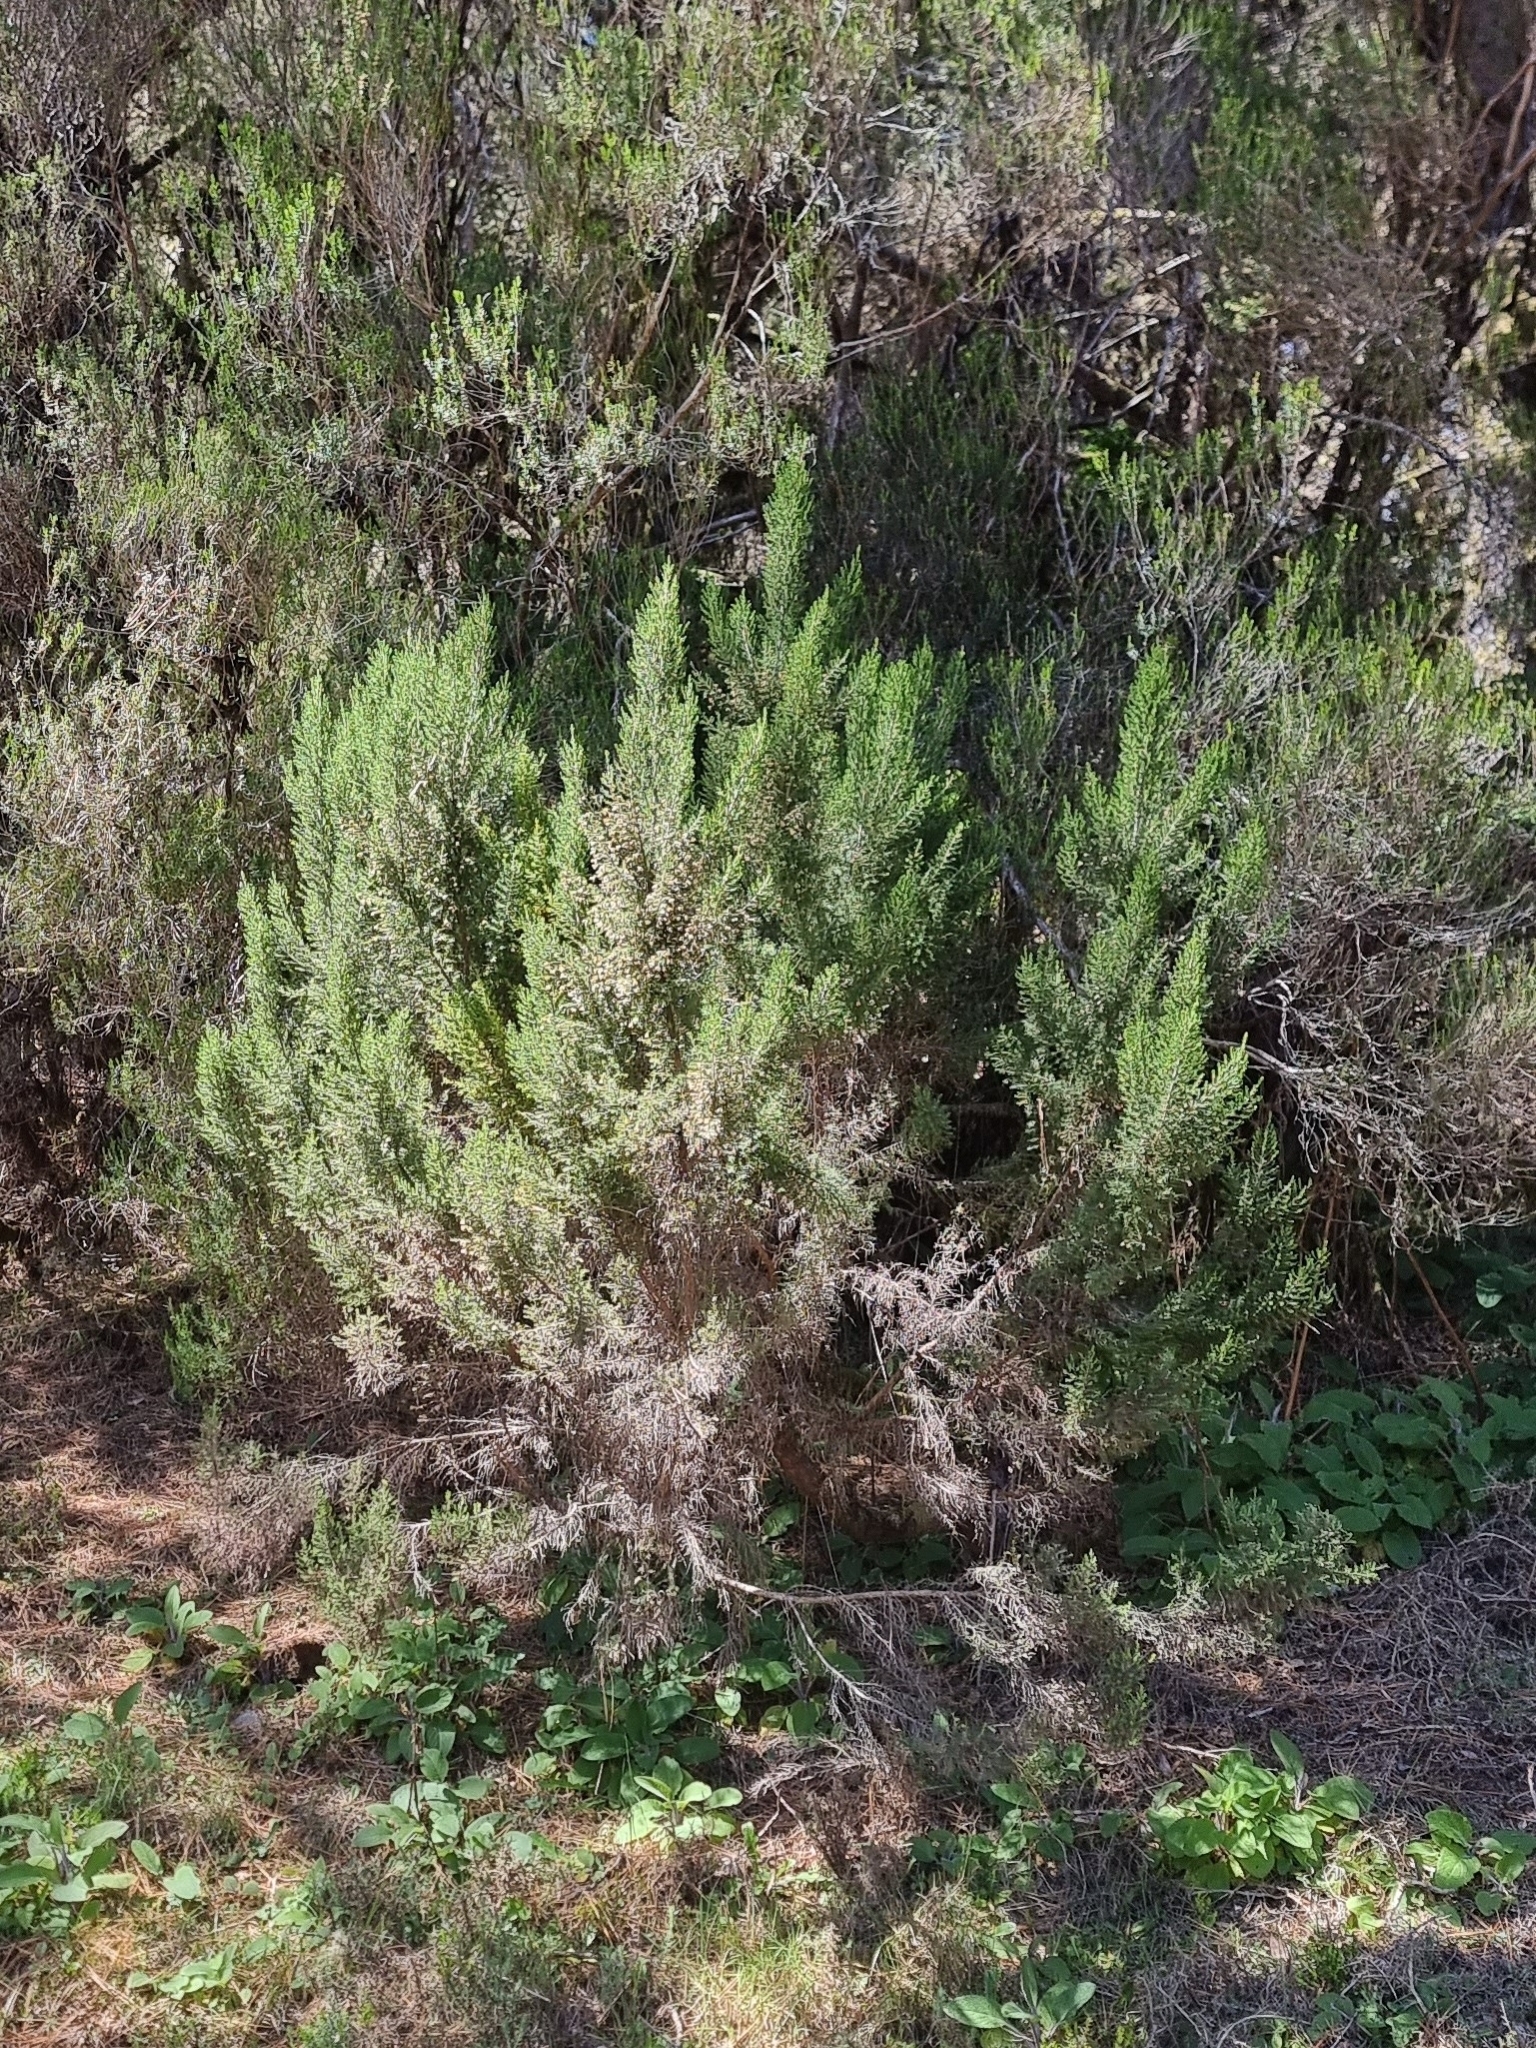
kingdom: Plantae
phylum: Tracheophyta
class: Magnoliopsida
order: Ericales
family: Ericaceae
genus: Erica
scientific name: Erica canariensis
